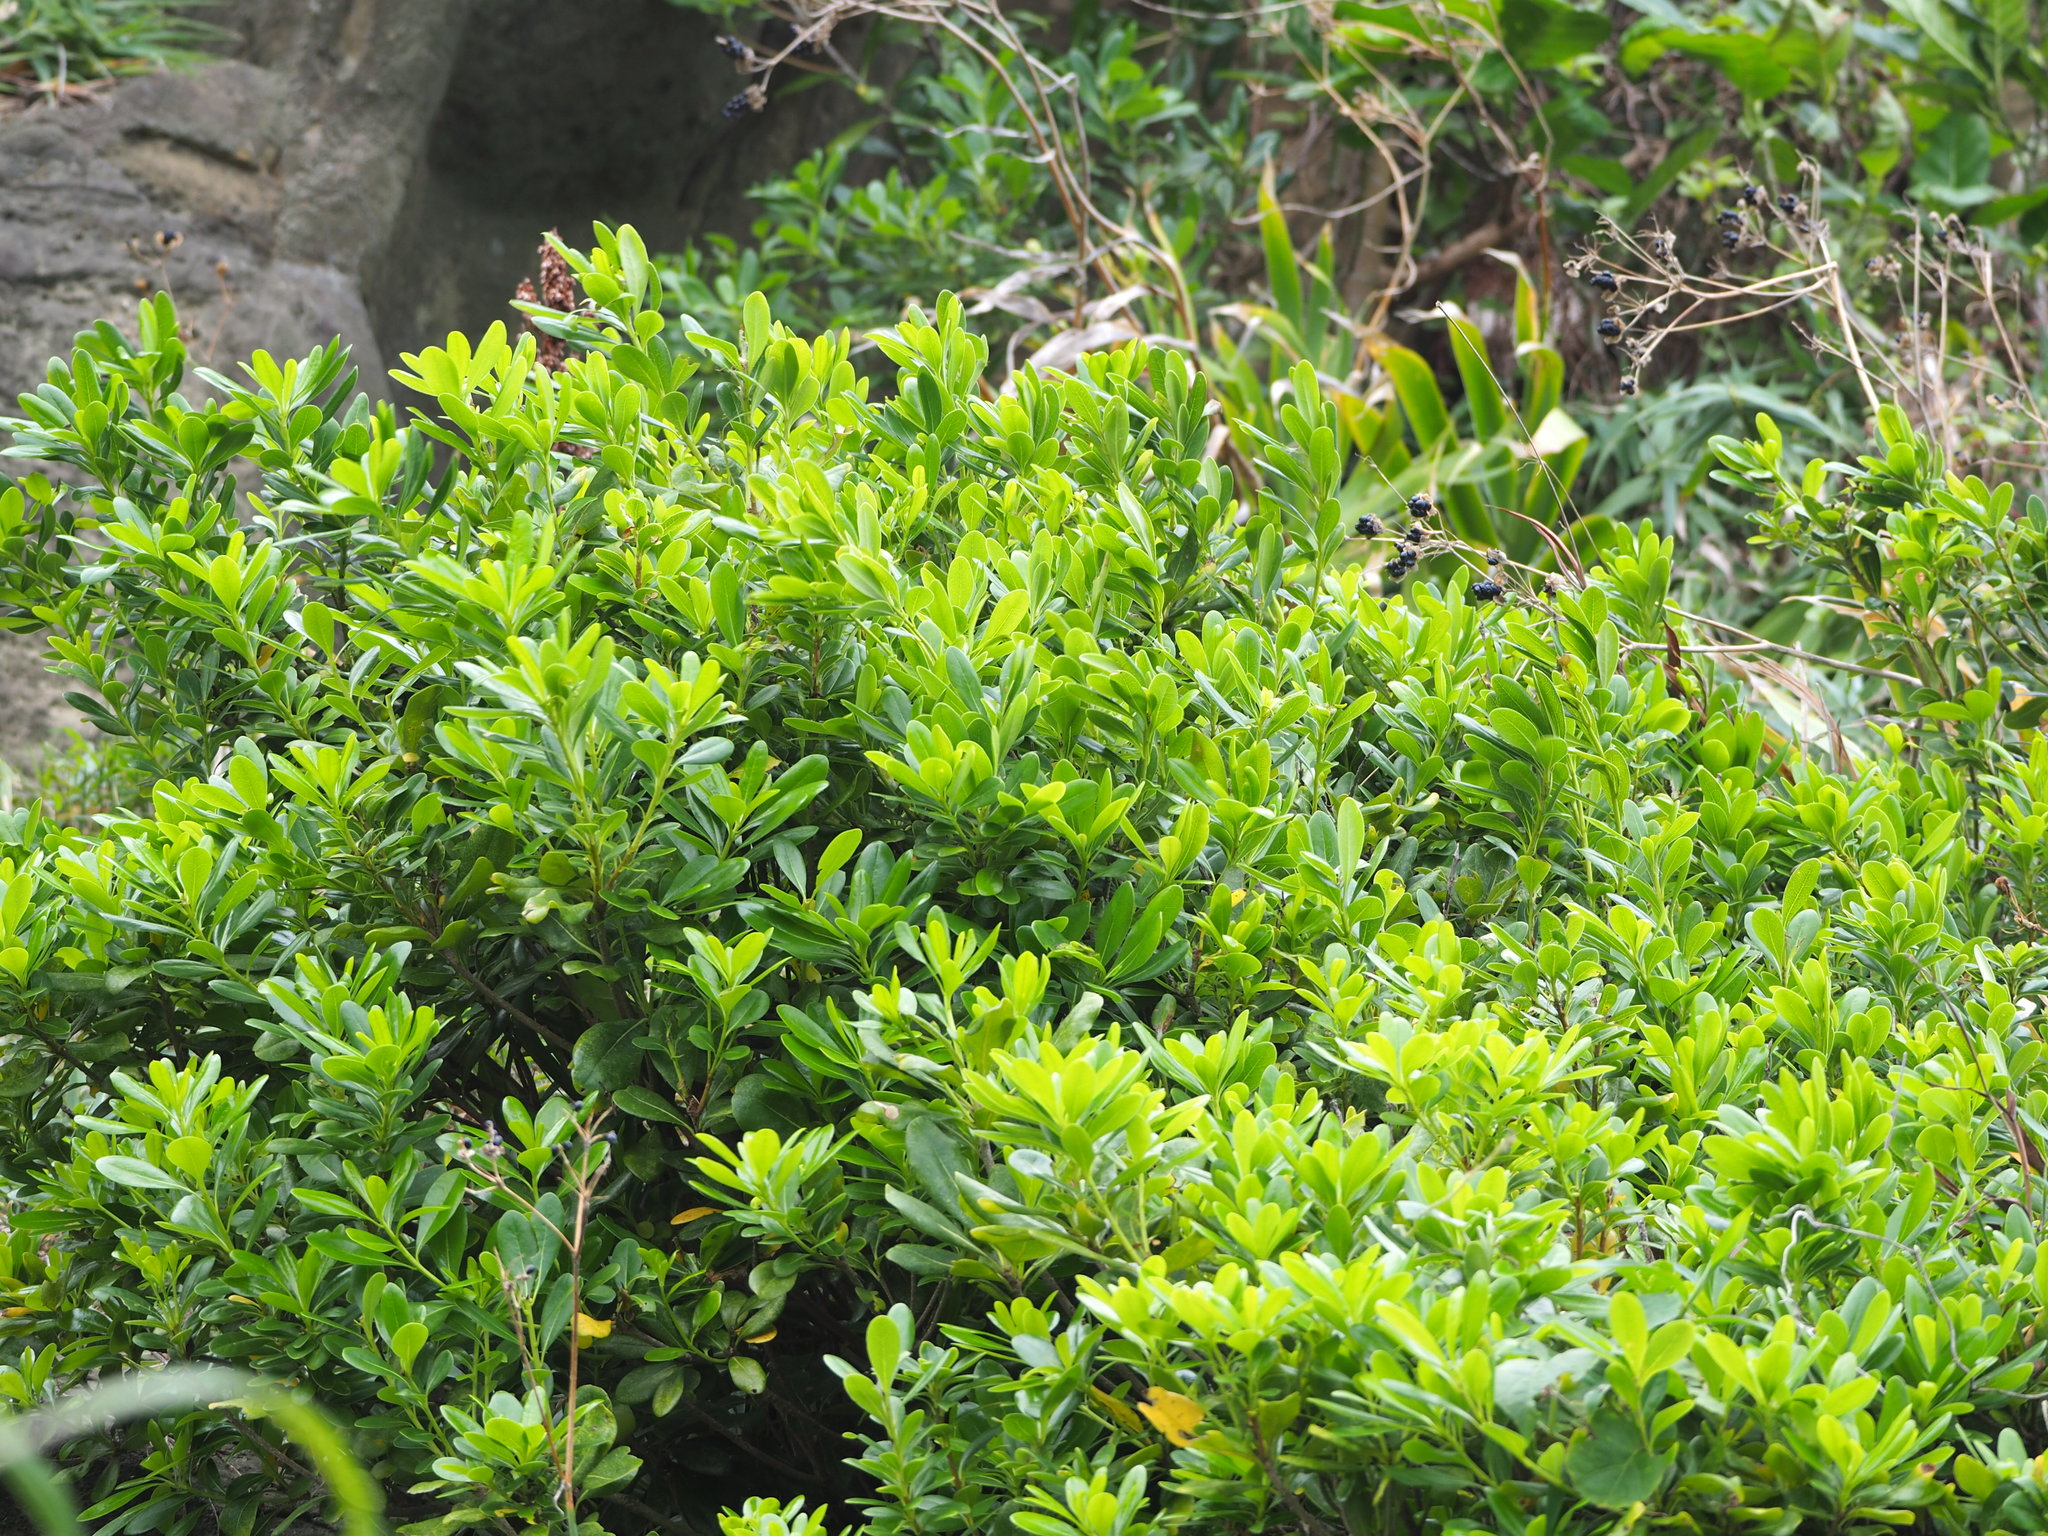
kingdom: Plantae
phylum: Tracheophyta
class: Magnoliopsida
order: Apiales
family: Pittosporaceae
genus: Pittosporum
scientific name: Pittosporum tobira
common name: Japanese cheesewood
